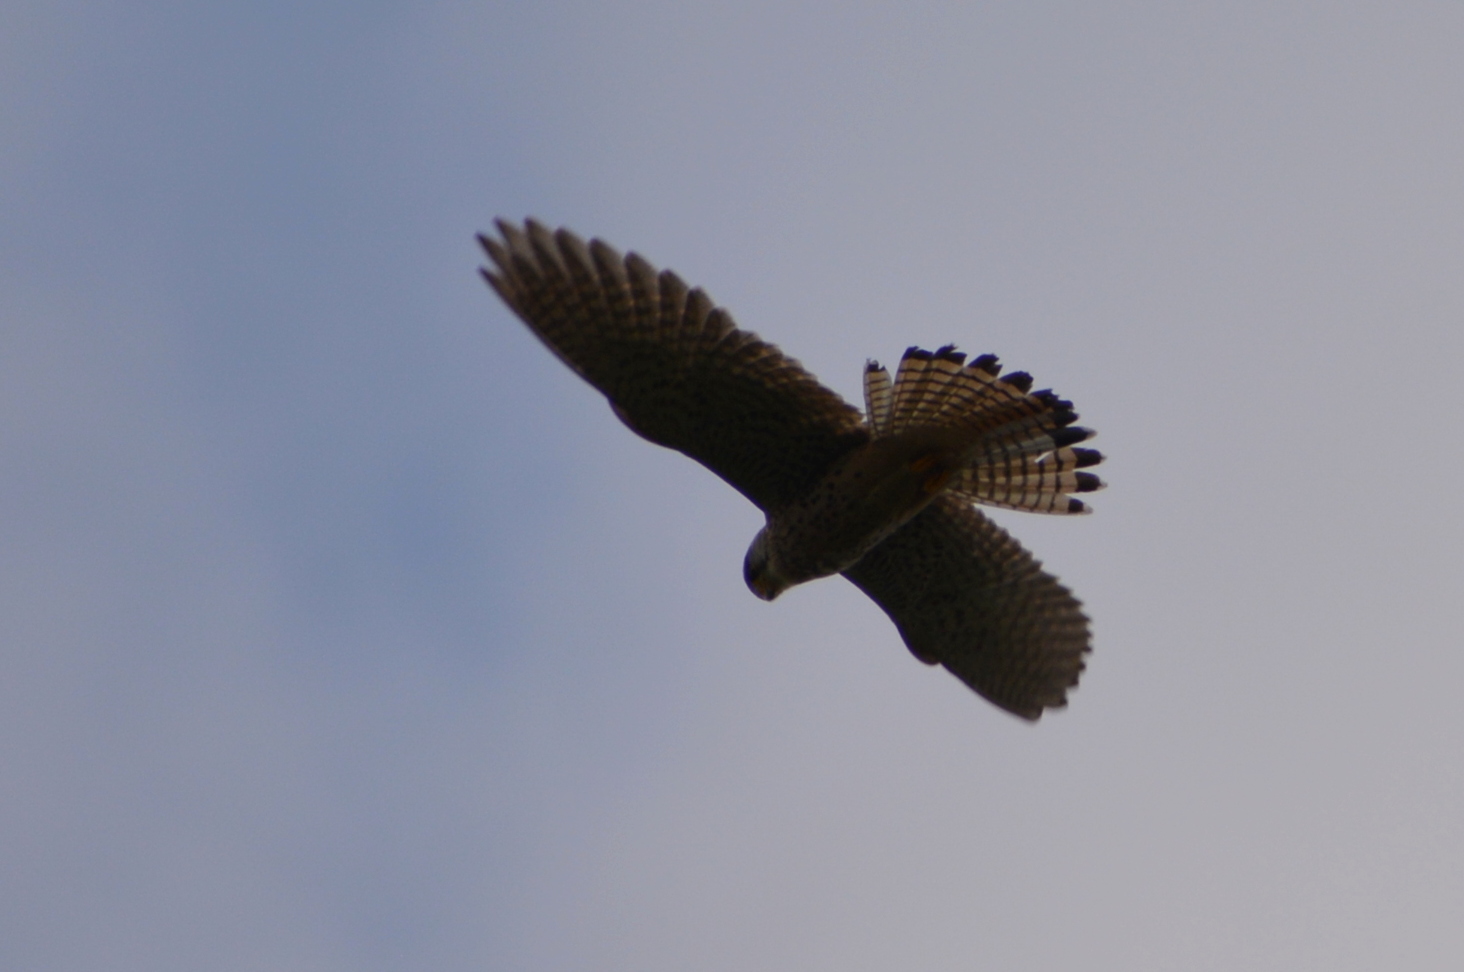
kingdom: Animalia
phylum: Chordata
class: Aves
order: Falconiformes
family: Falconidae
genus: Falco
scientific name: Falco tinnunculus
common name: Common kestrel
